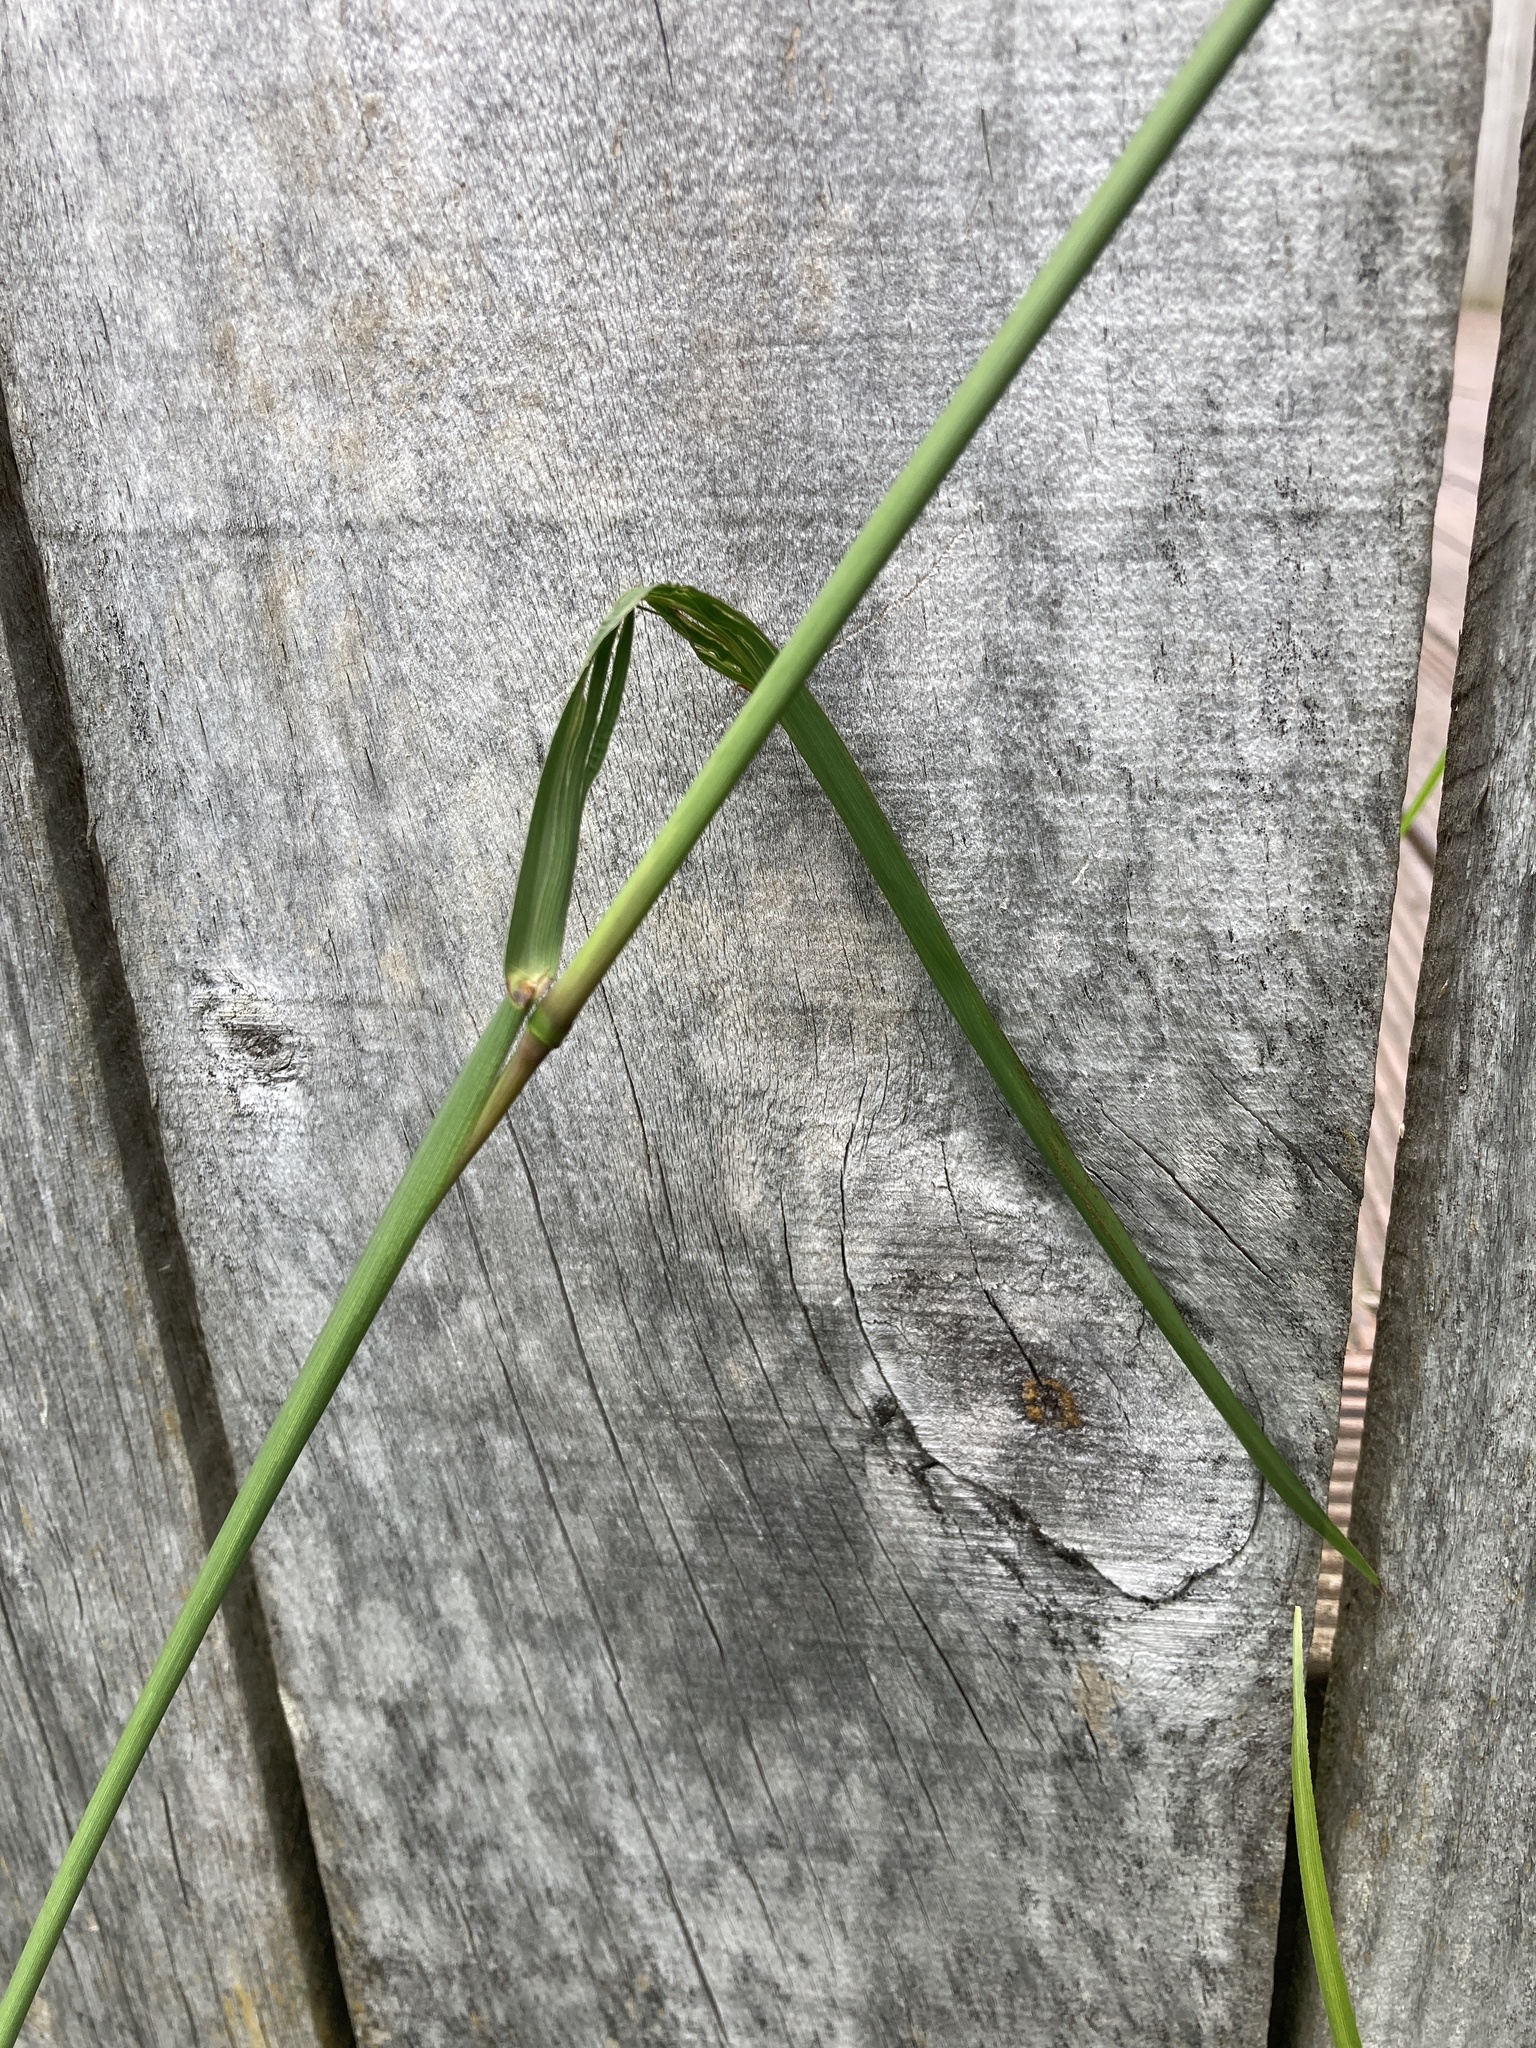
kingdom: Plantae
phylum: Tracheophyta
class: Liliopsida
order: Poales
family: Poaceae
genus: Paspalum
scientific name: Paspalum dilatatum
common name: Dallisgrass
